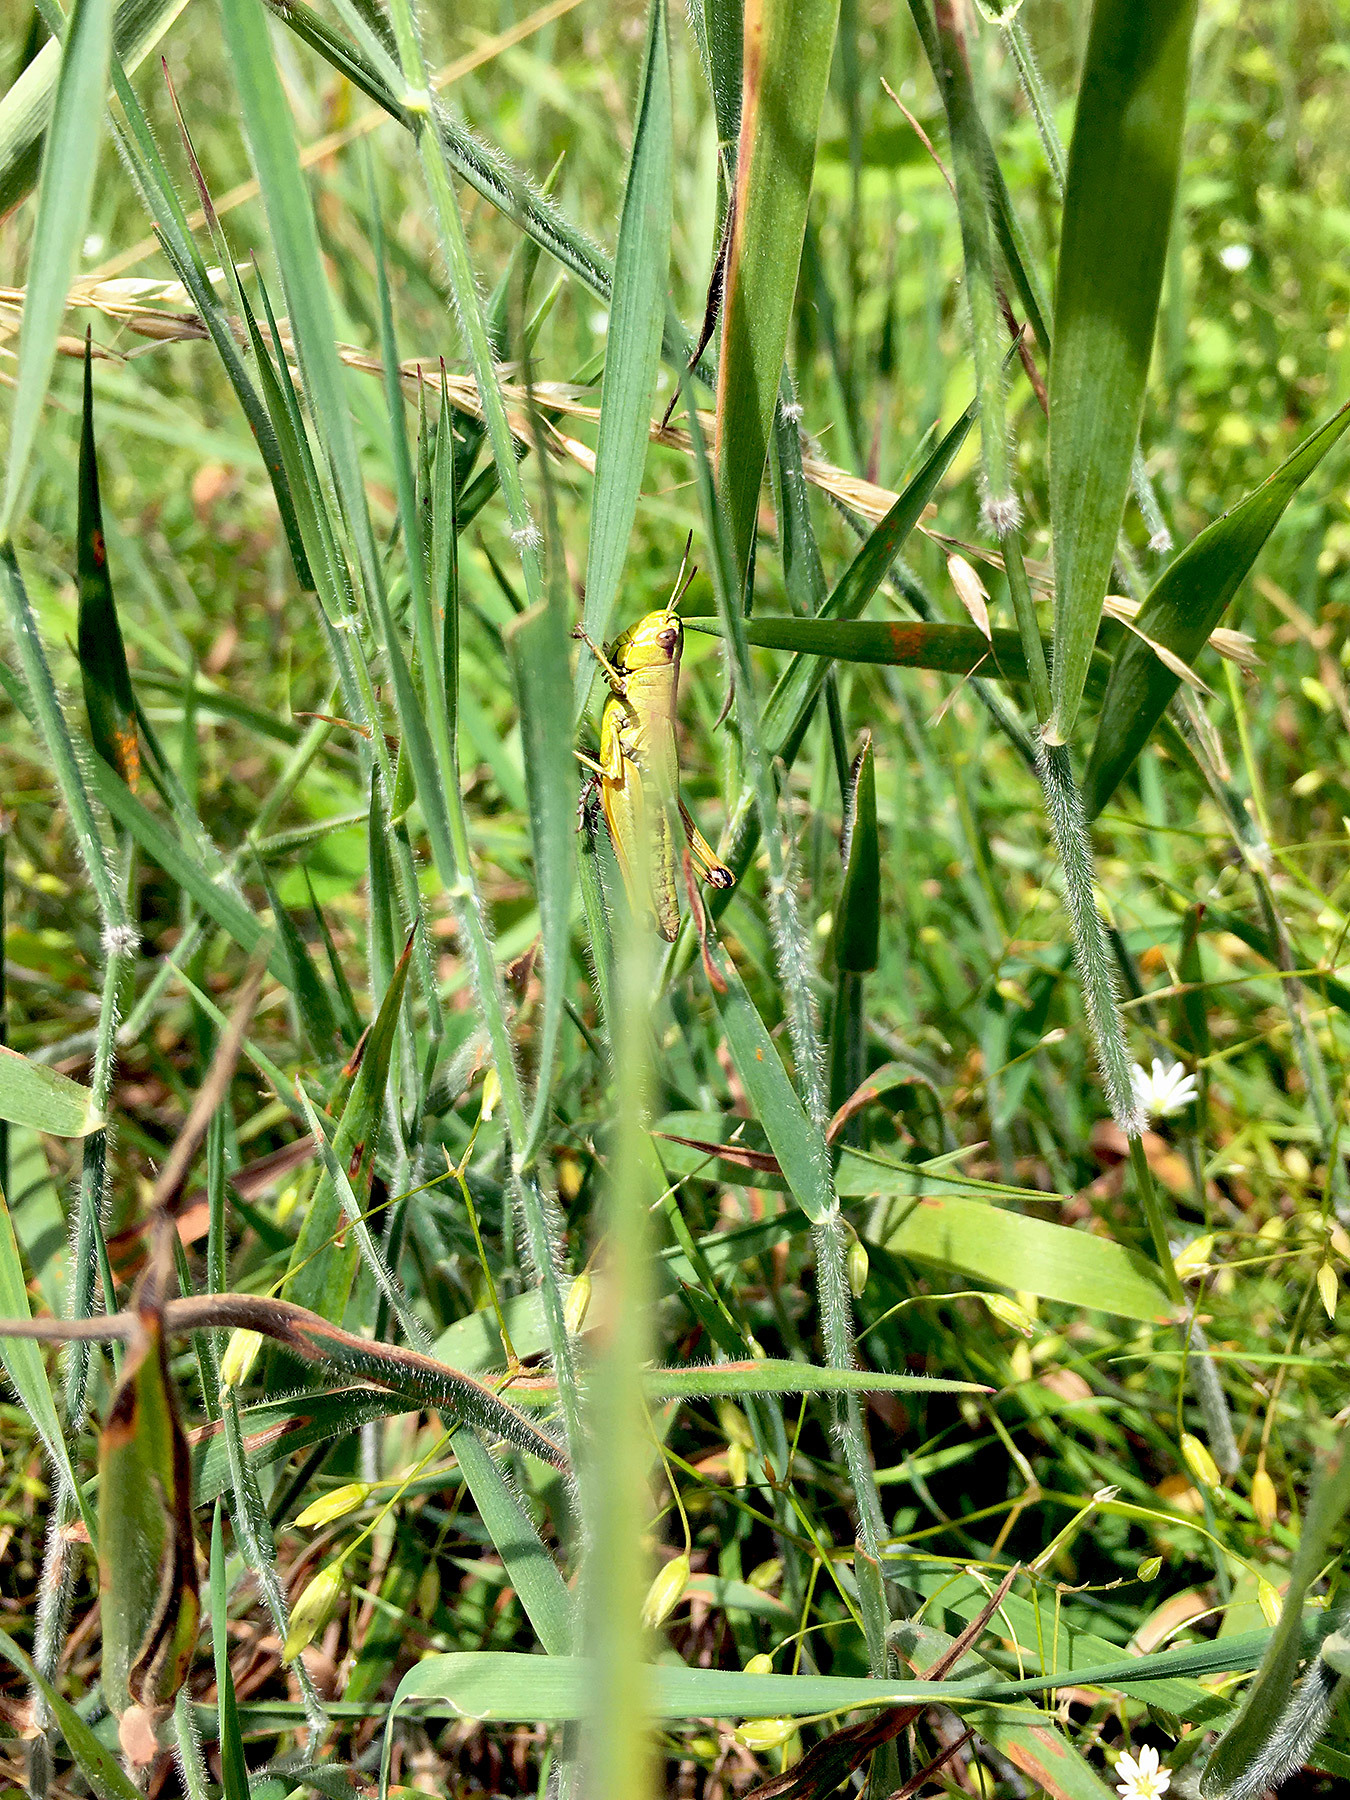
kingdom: Animalia
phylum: Arthropoda
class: Insecta
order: Orthoptera
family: Acrididae
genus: Pseudochorthippus
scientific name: Pseudochorthippus parallelus
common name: Meadow grasshopper
